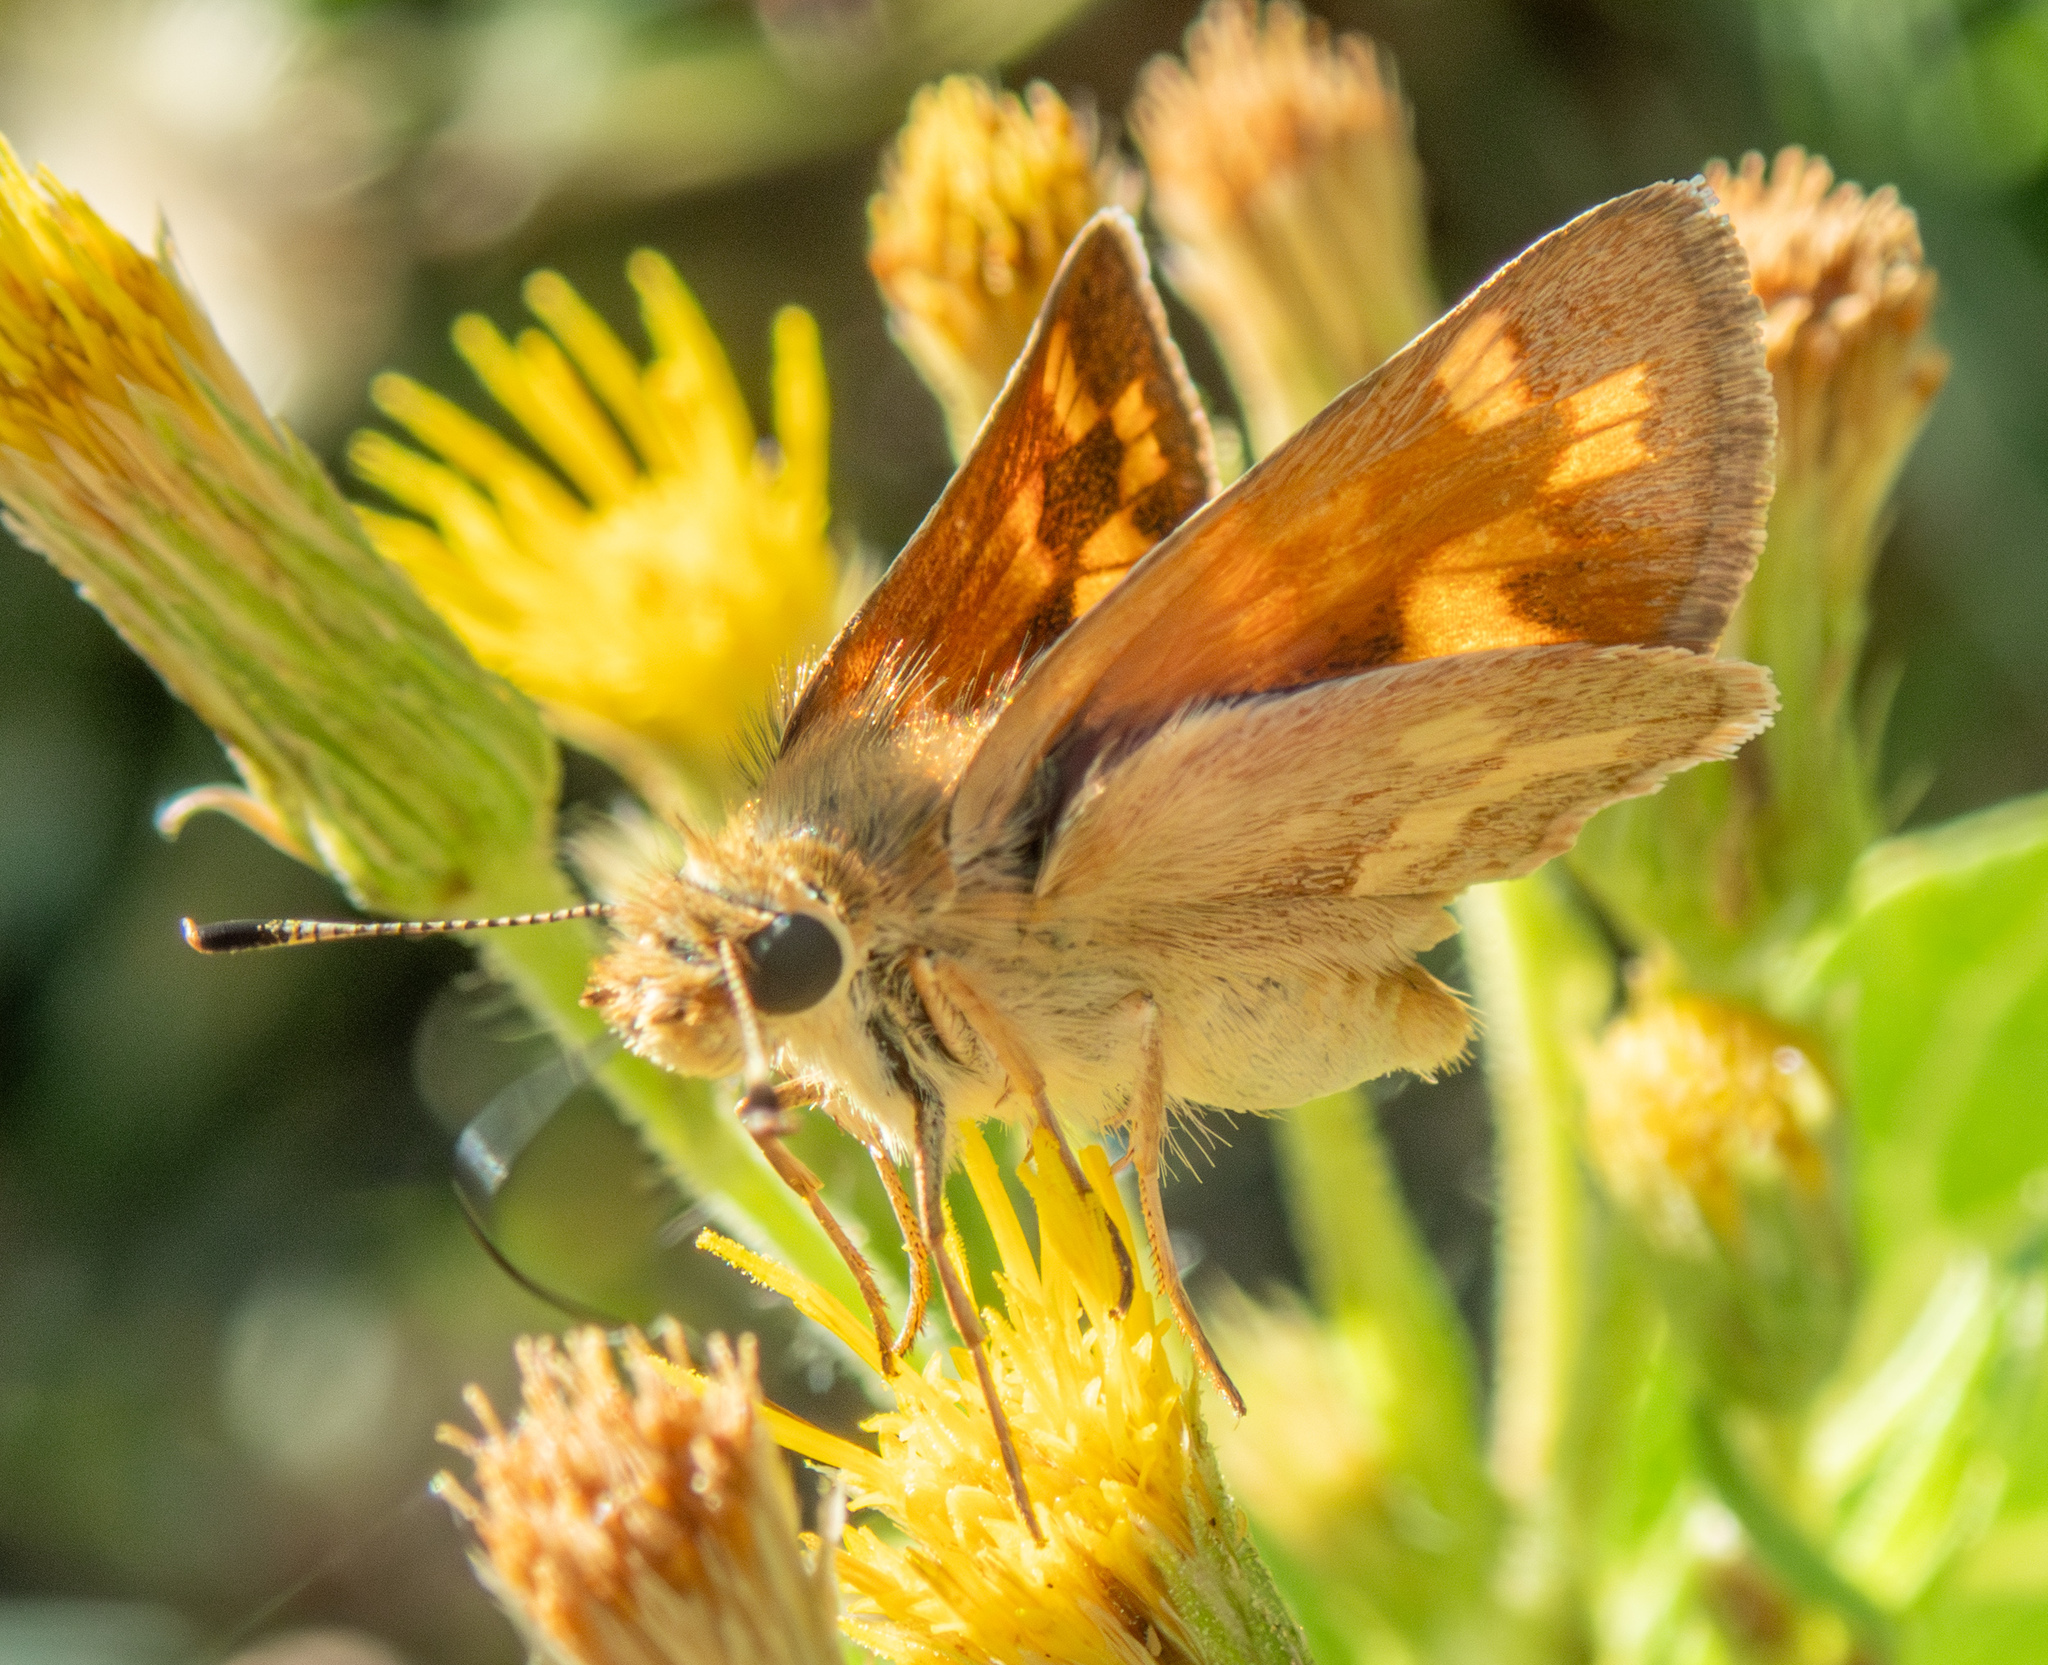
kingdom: Animalia
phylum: Arthropoda
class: Insecta
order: Lepidoptera
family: Hesperiidae
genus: Ochlodes
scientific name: Ochlodes sylvanoides
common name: Woodland skipper
